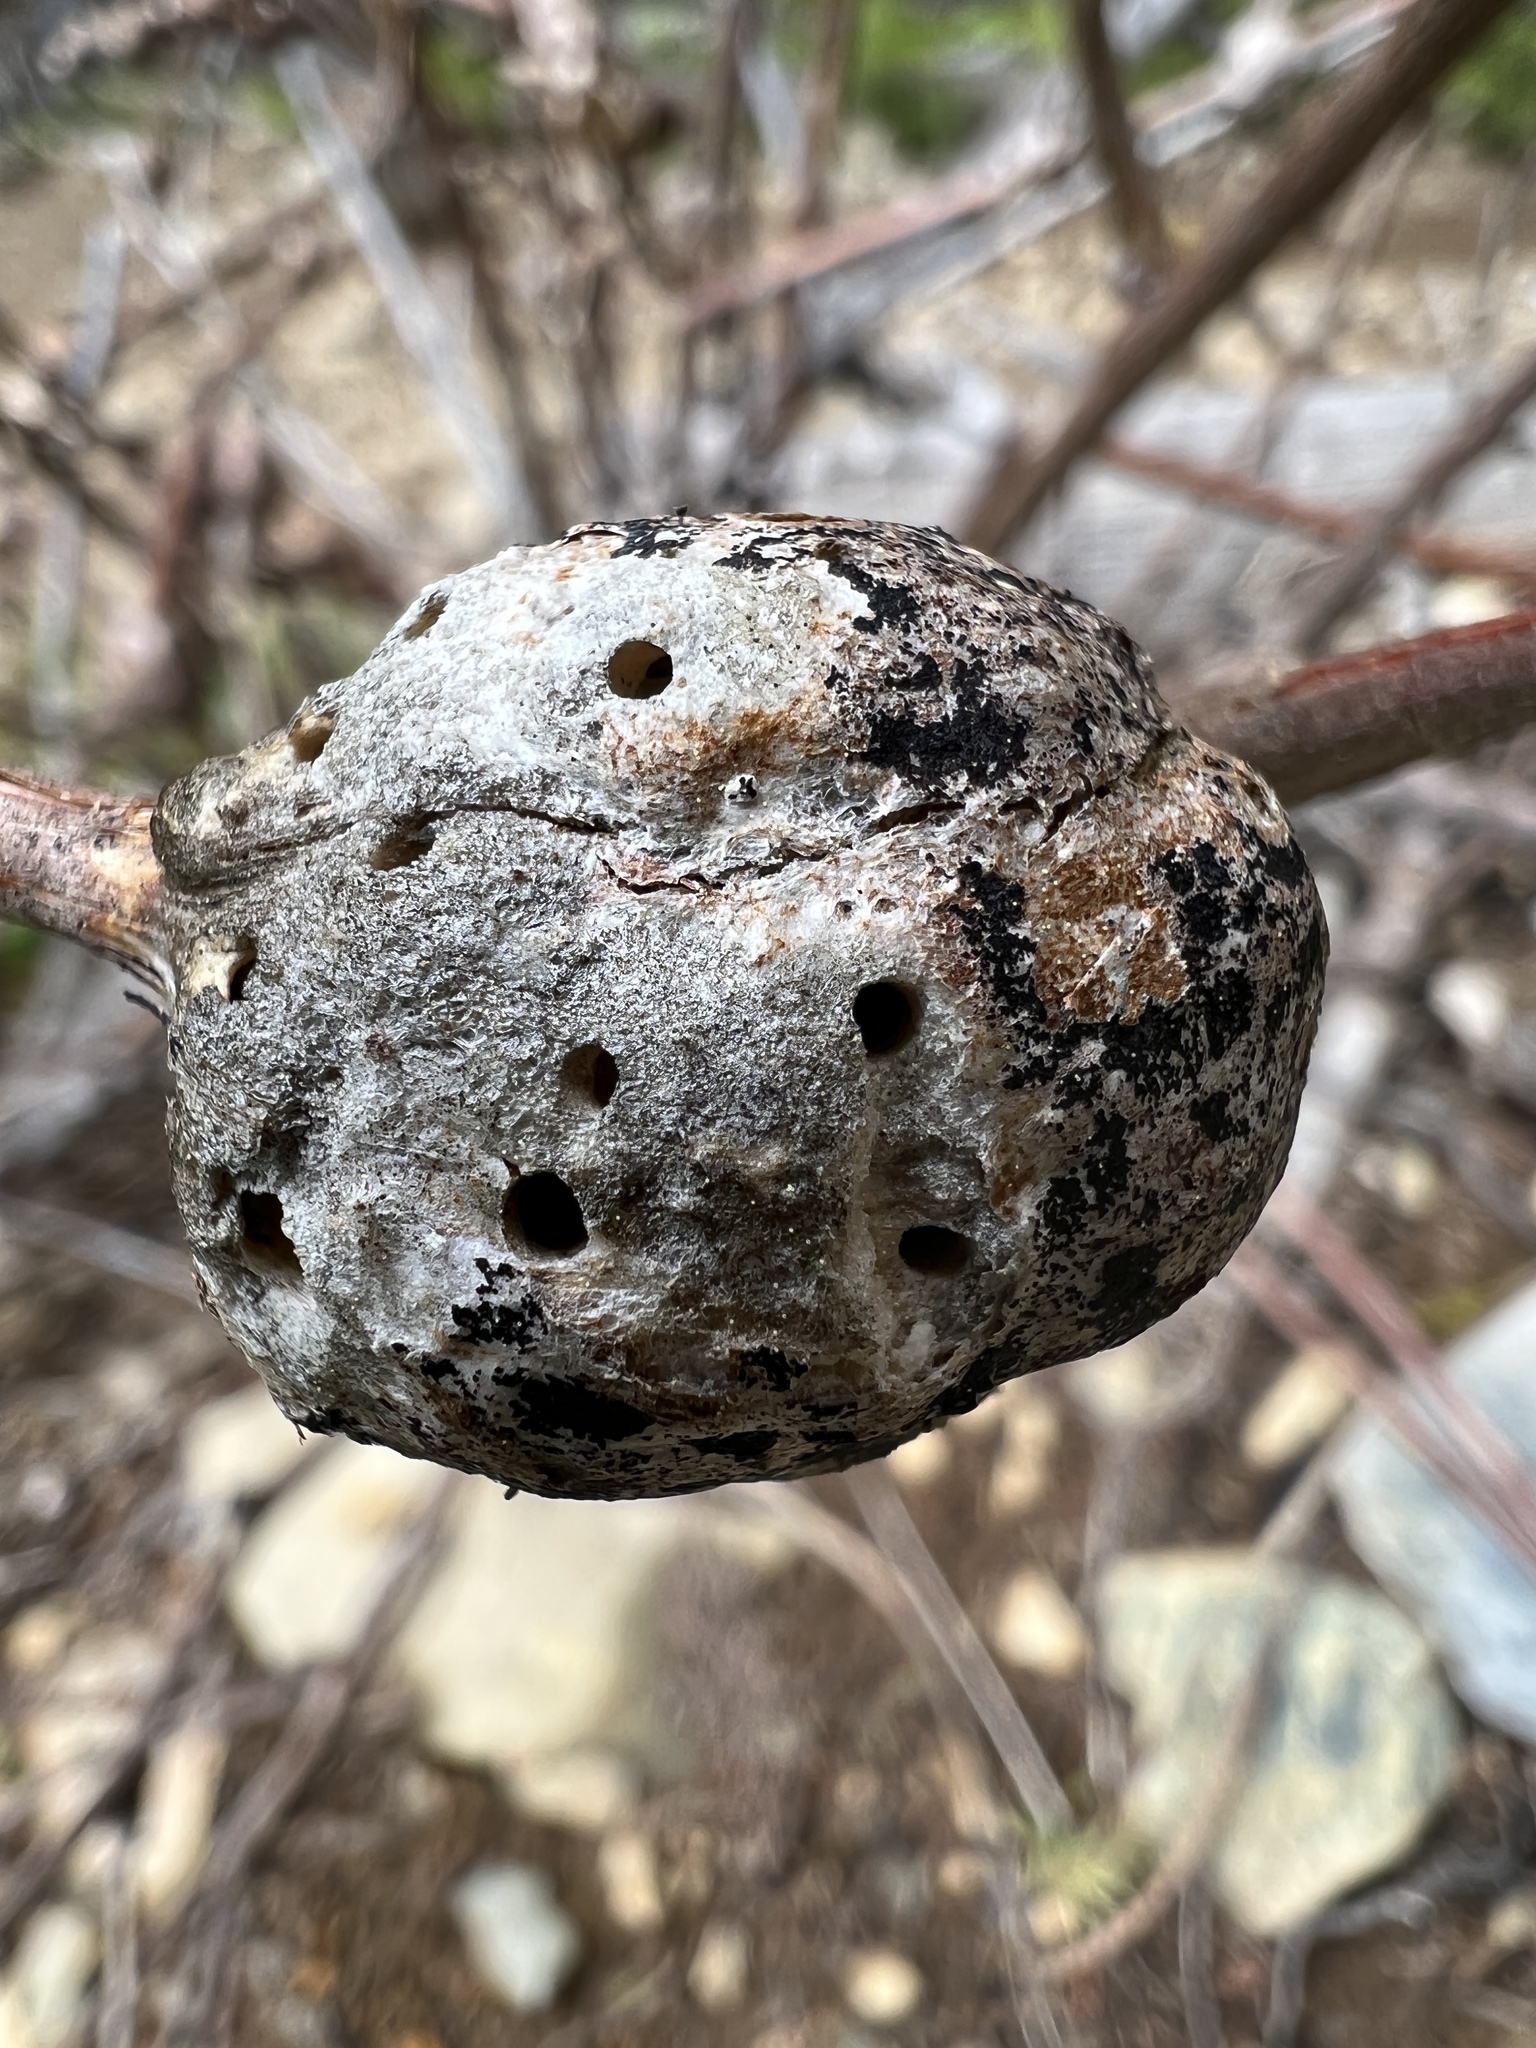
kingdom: Animalia
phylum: Arthropoda
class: Insecta
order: Hymenoptera
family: Cynipidae
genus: Diastrophus
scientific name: Diastrophus
